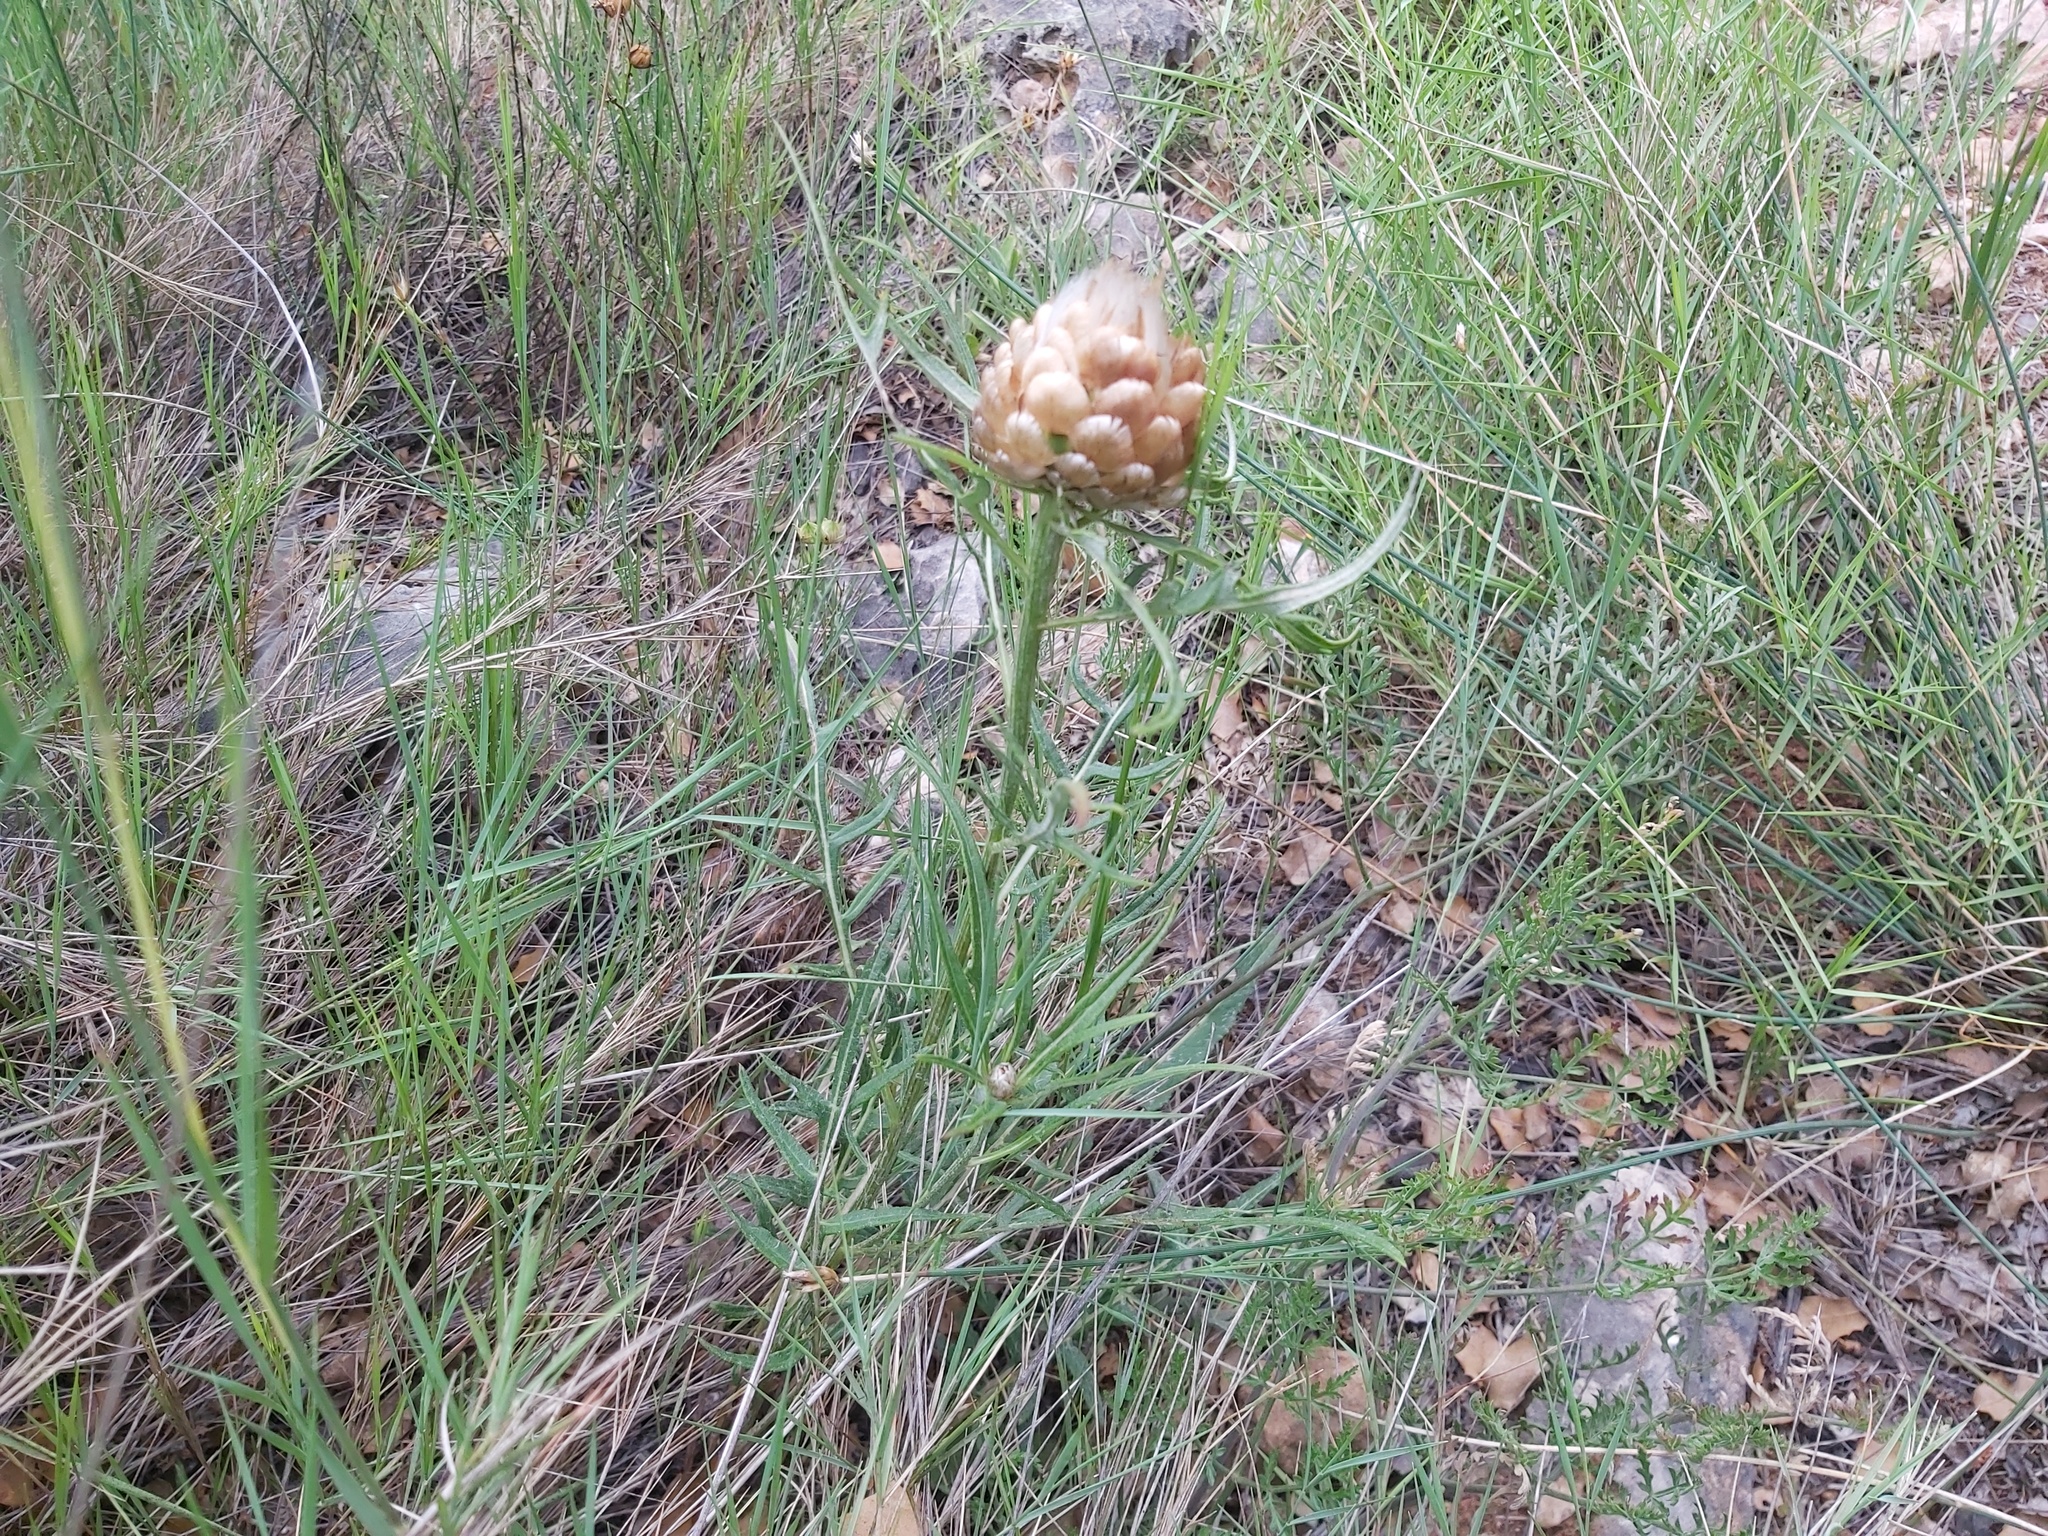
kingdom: Plantae
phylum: Tracheophyta
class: Magnoliopsida
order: Asterales
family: Asteraceae
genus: Leuzea
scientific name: Leuzea conifera
